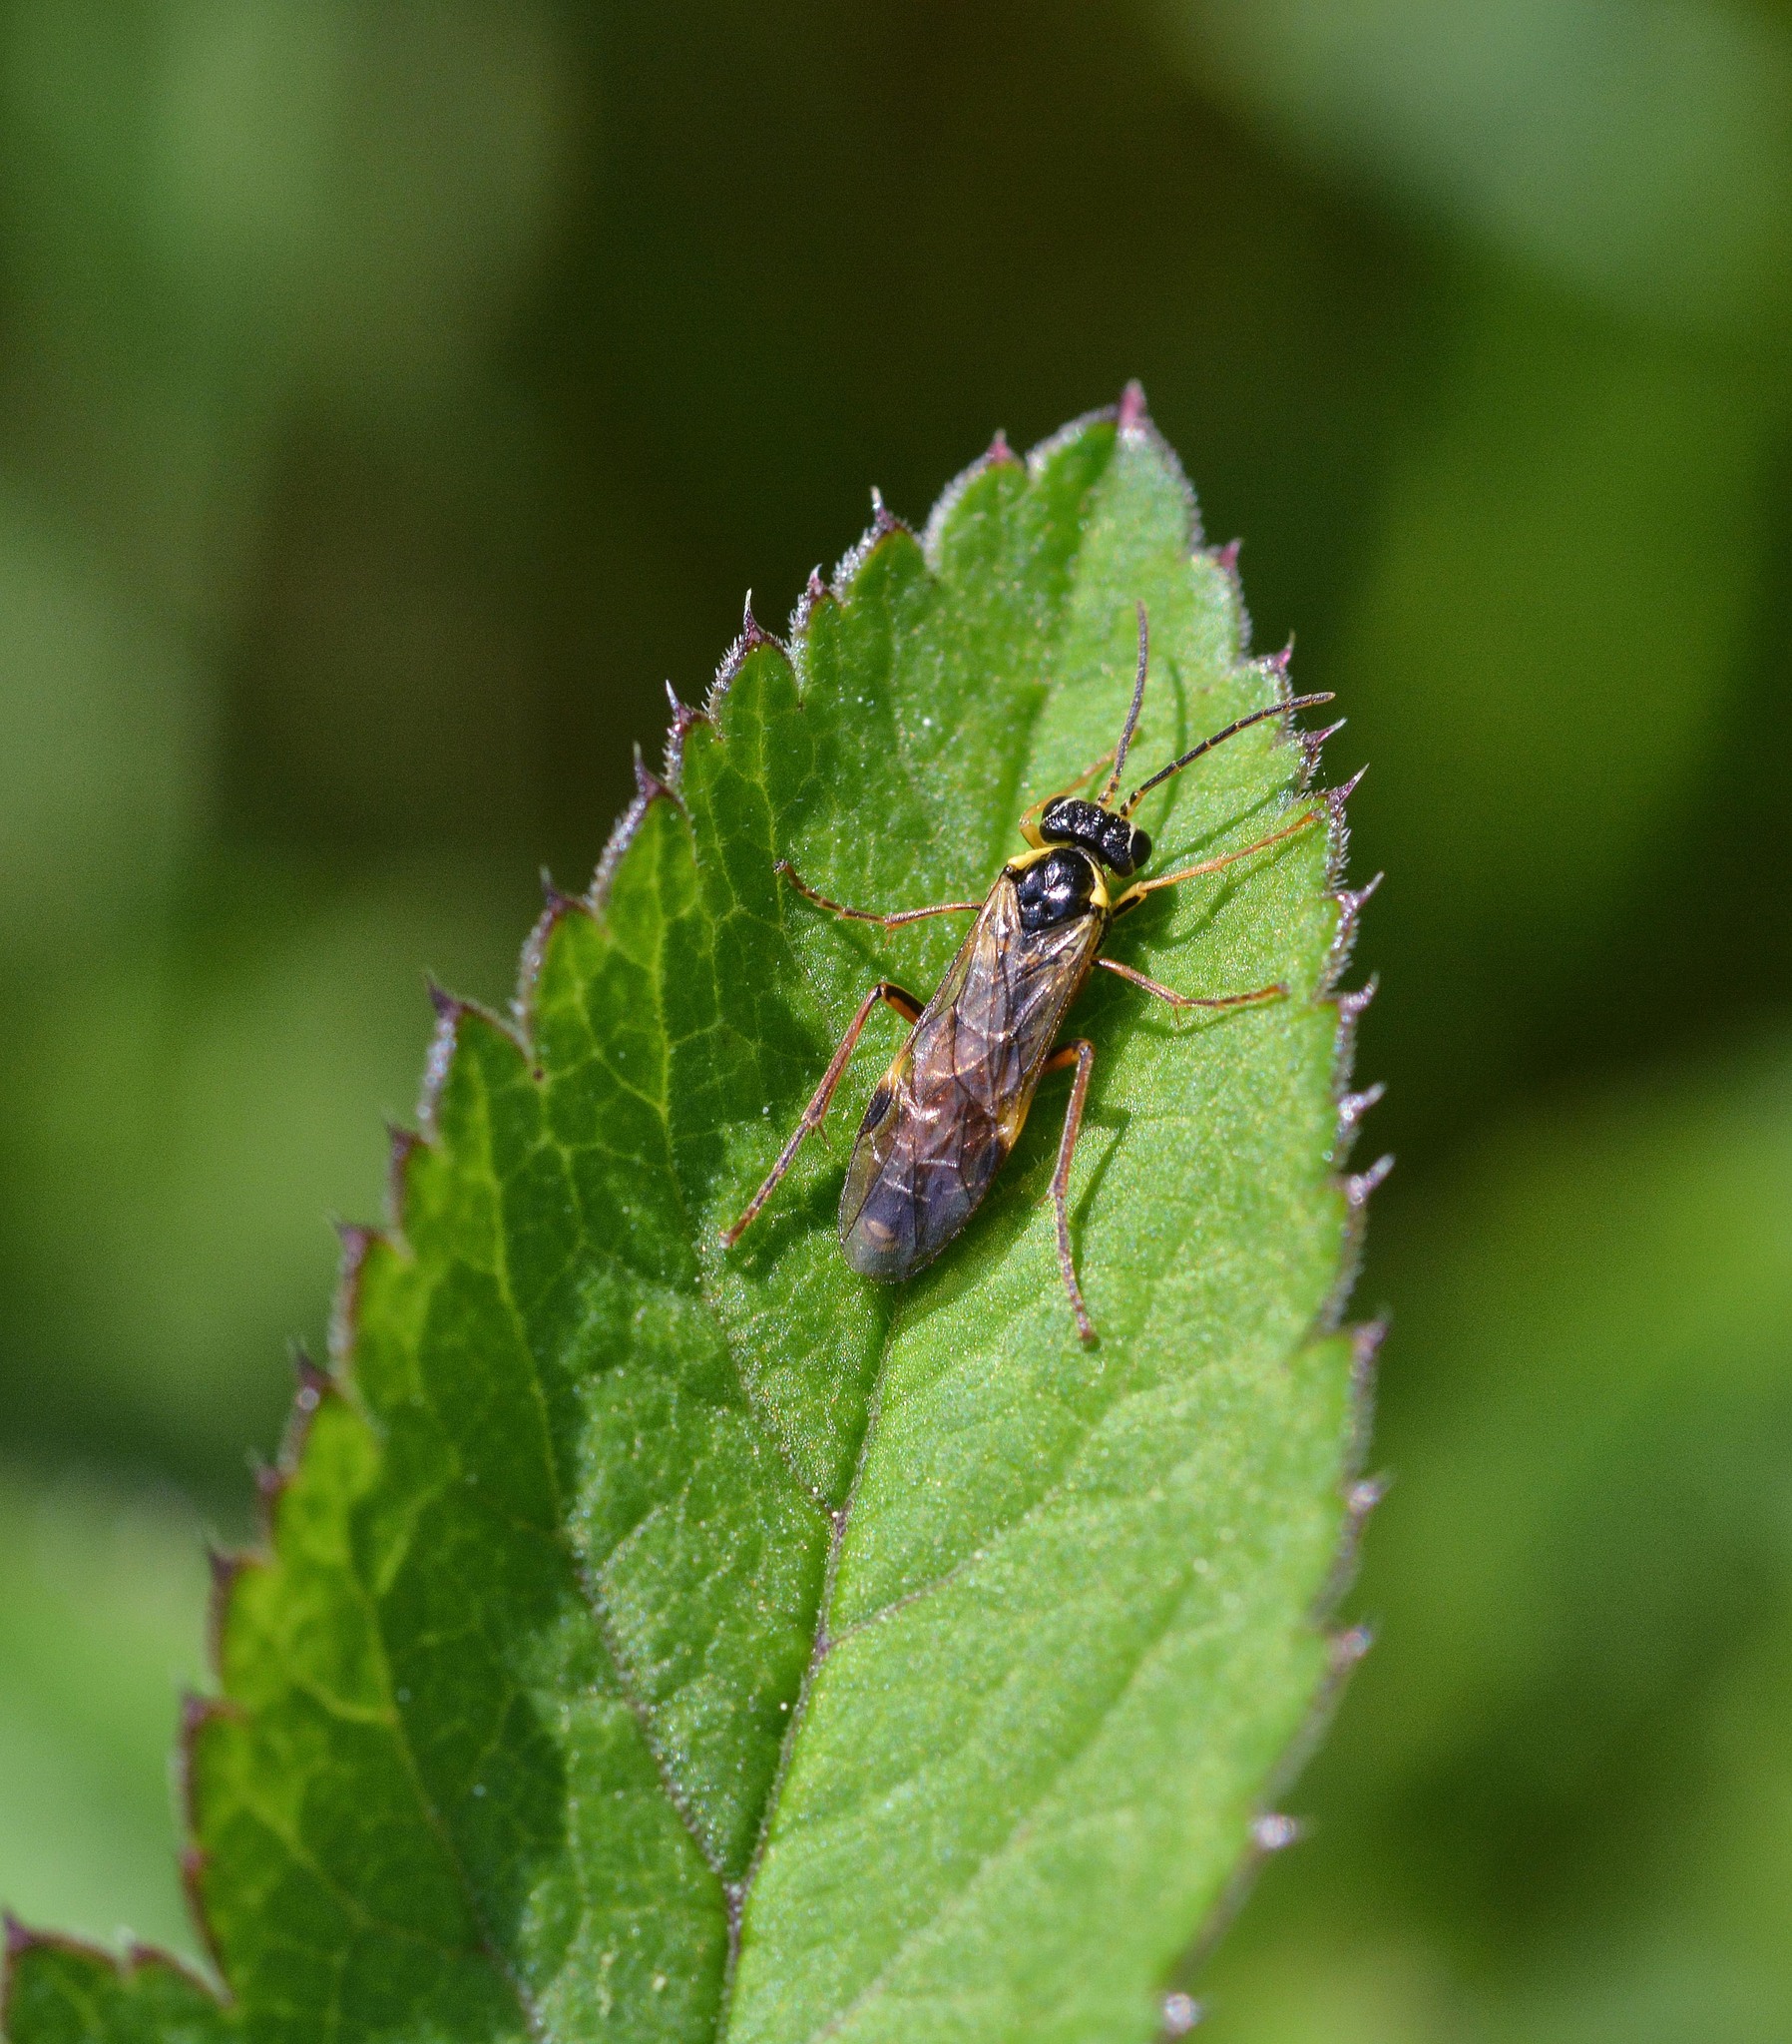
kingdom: Animalia
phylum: Arthropoda
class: Insecta
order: Hymenoptera
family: Tenthredinidae
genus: Aglaostigma
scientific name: Aglaostigma fulvipes
